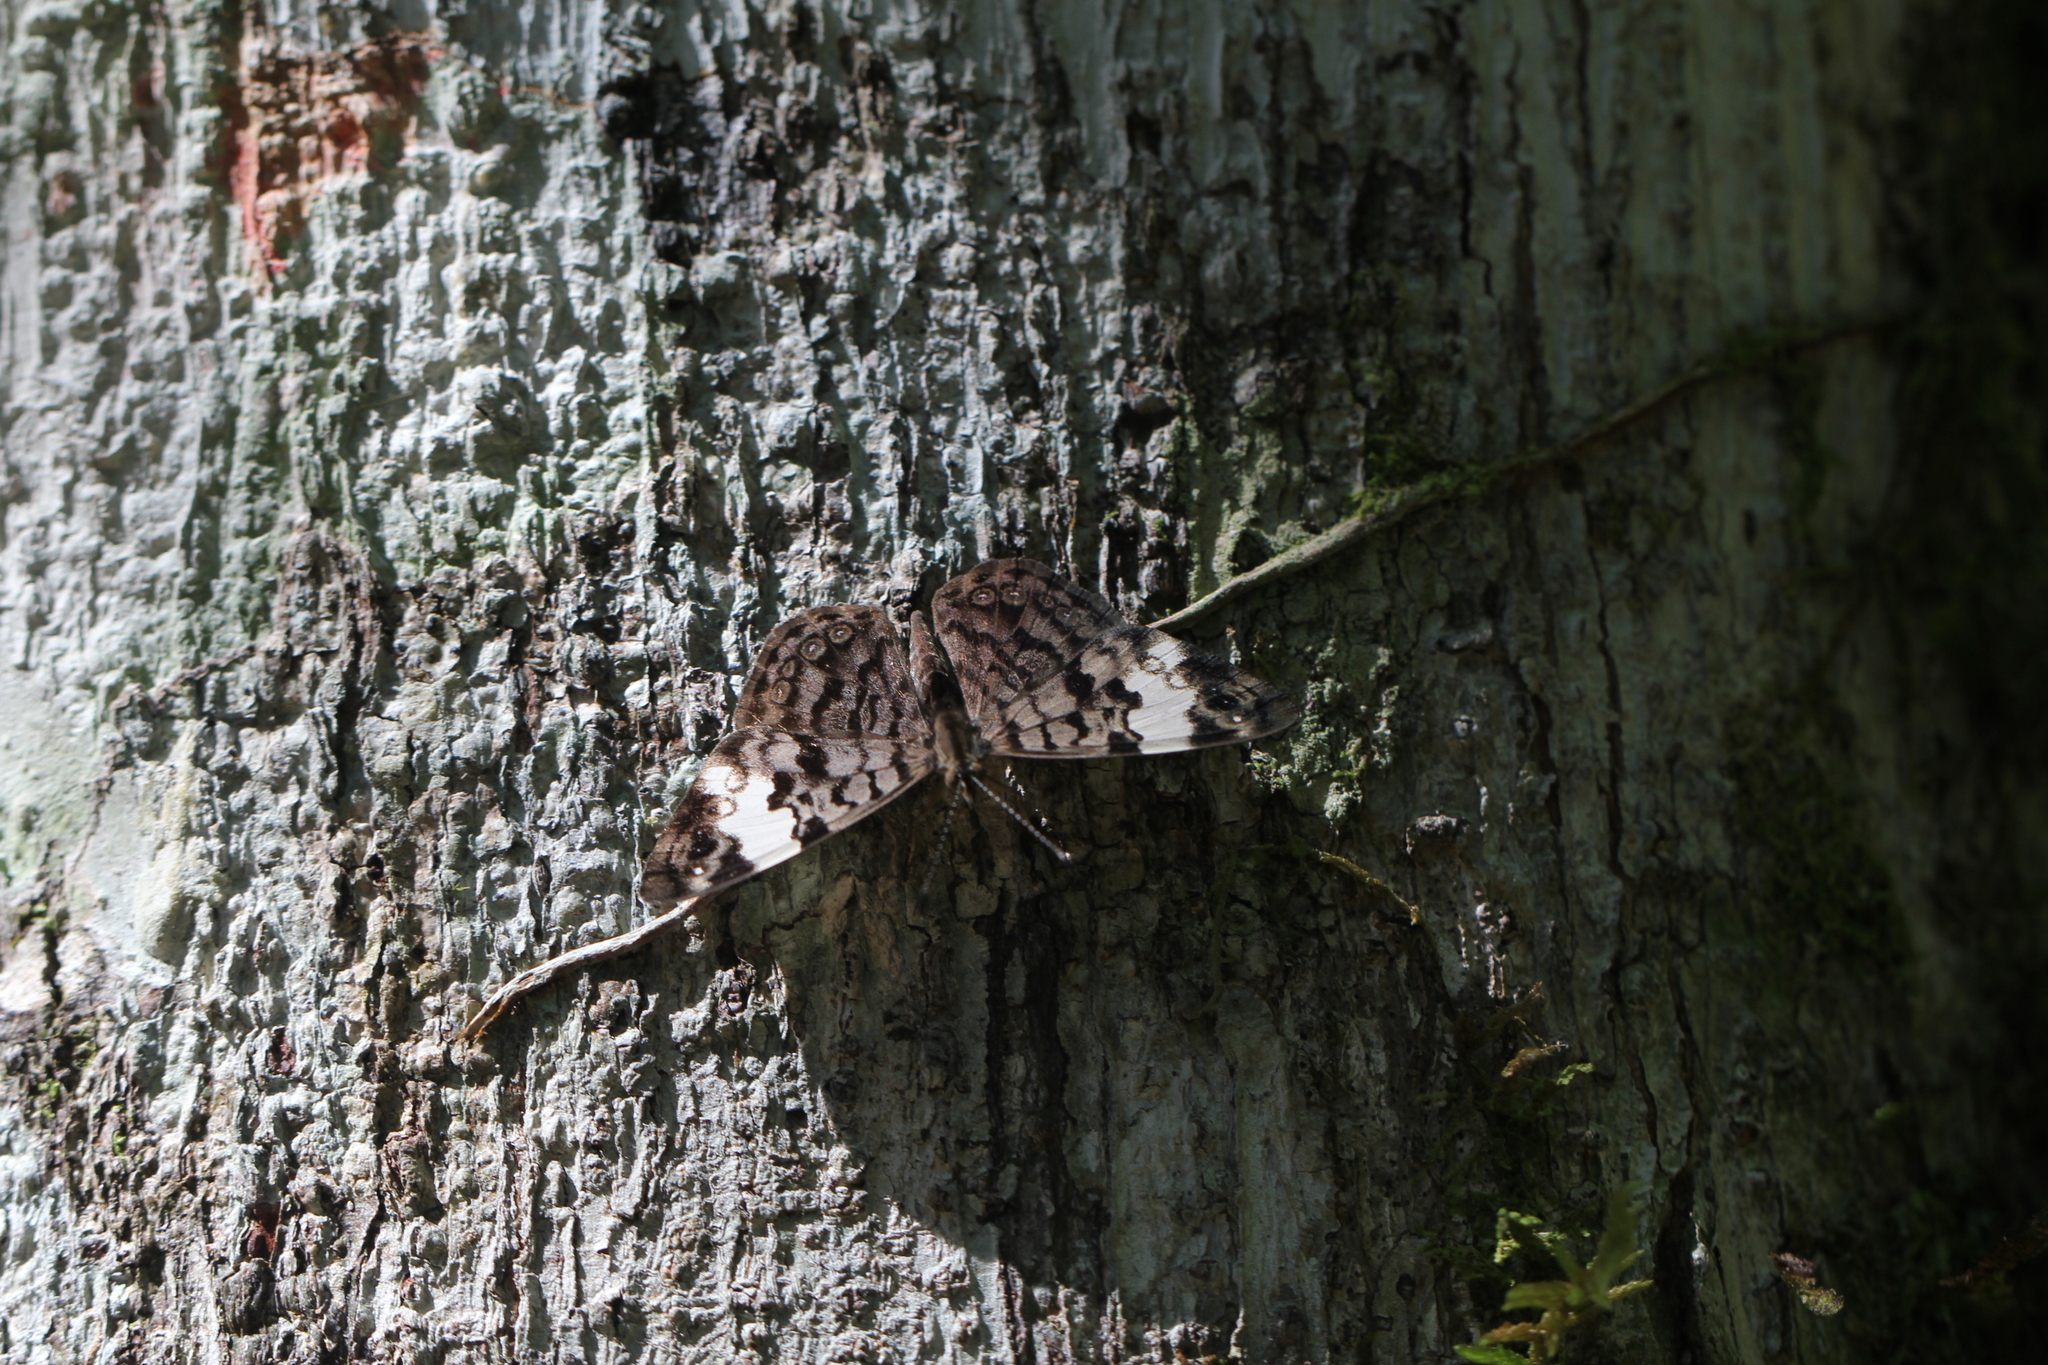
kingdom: Animalia
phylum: Arthropoda
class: Insecta
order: Lepidoptera
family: Nymphalidae
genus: Ectima
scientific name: Ectima thecla
